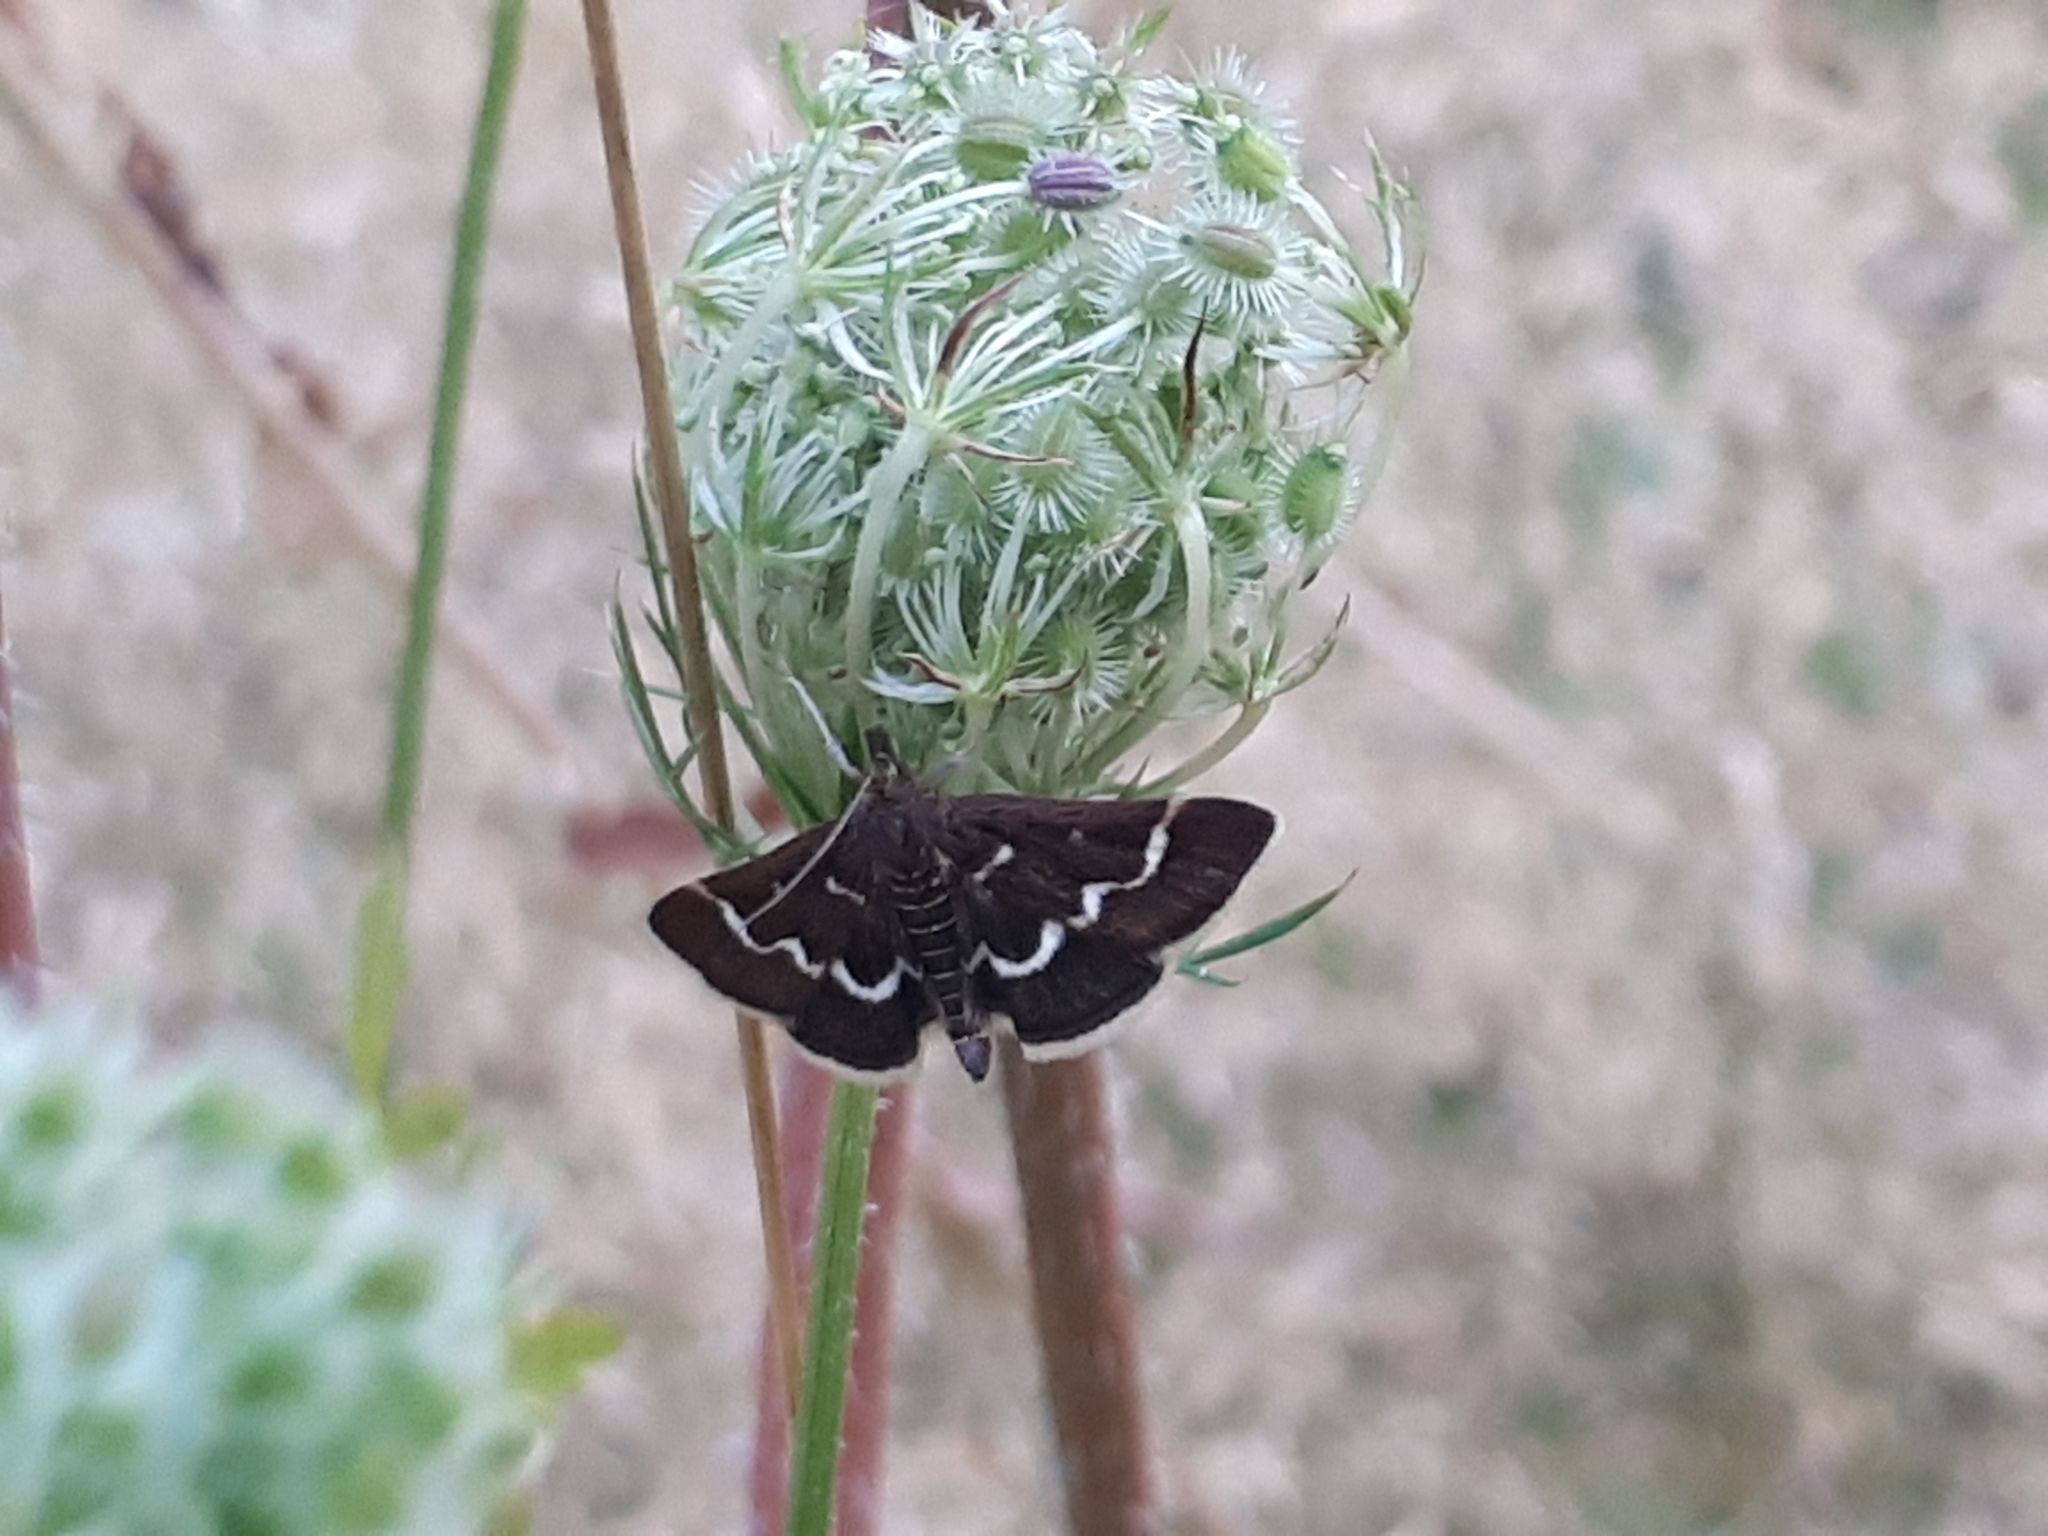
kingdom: Animalia
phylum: Arthropoda
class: Insecta
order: Lepidoptera
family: Crambidae
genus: Pyrausta
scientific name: Pyrausta nigrata
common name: Wavy-barred sable
